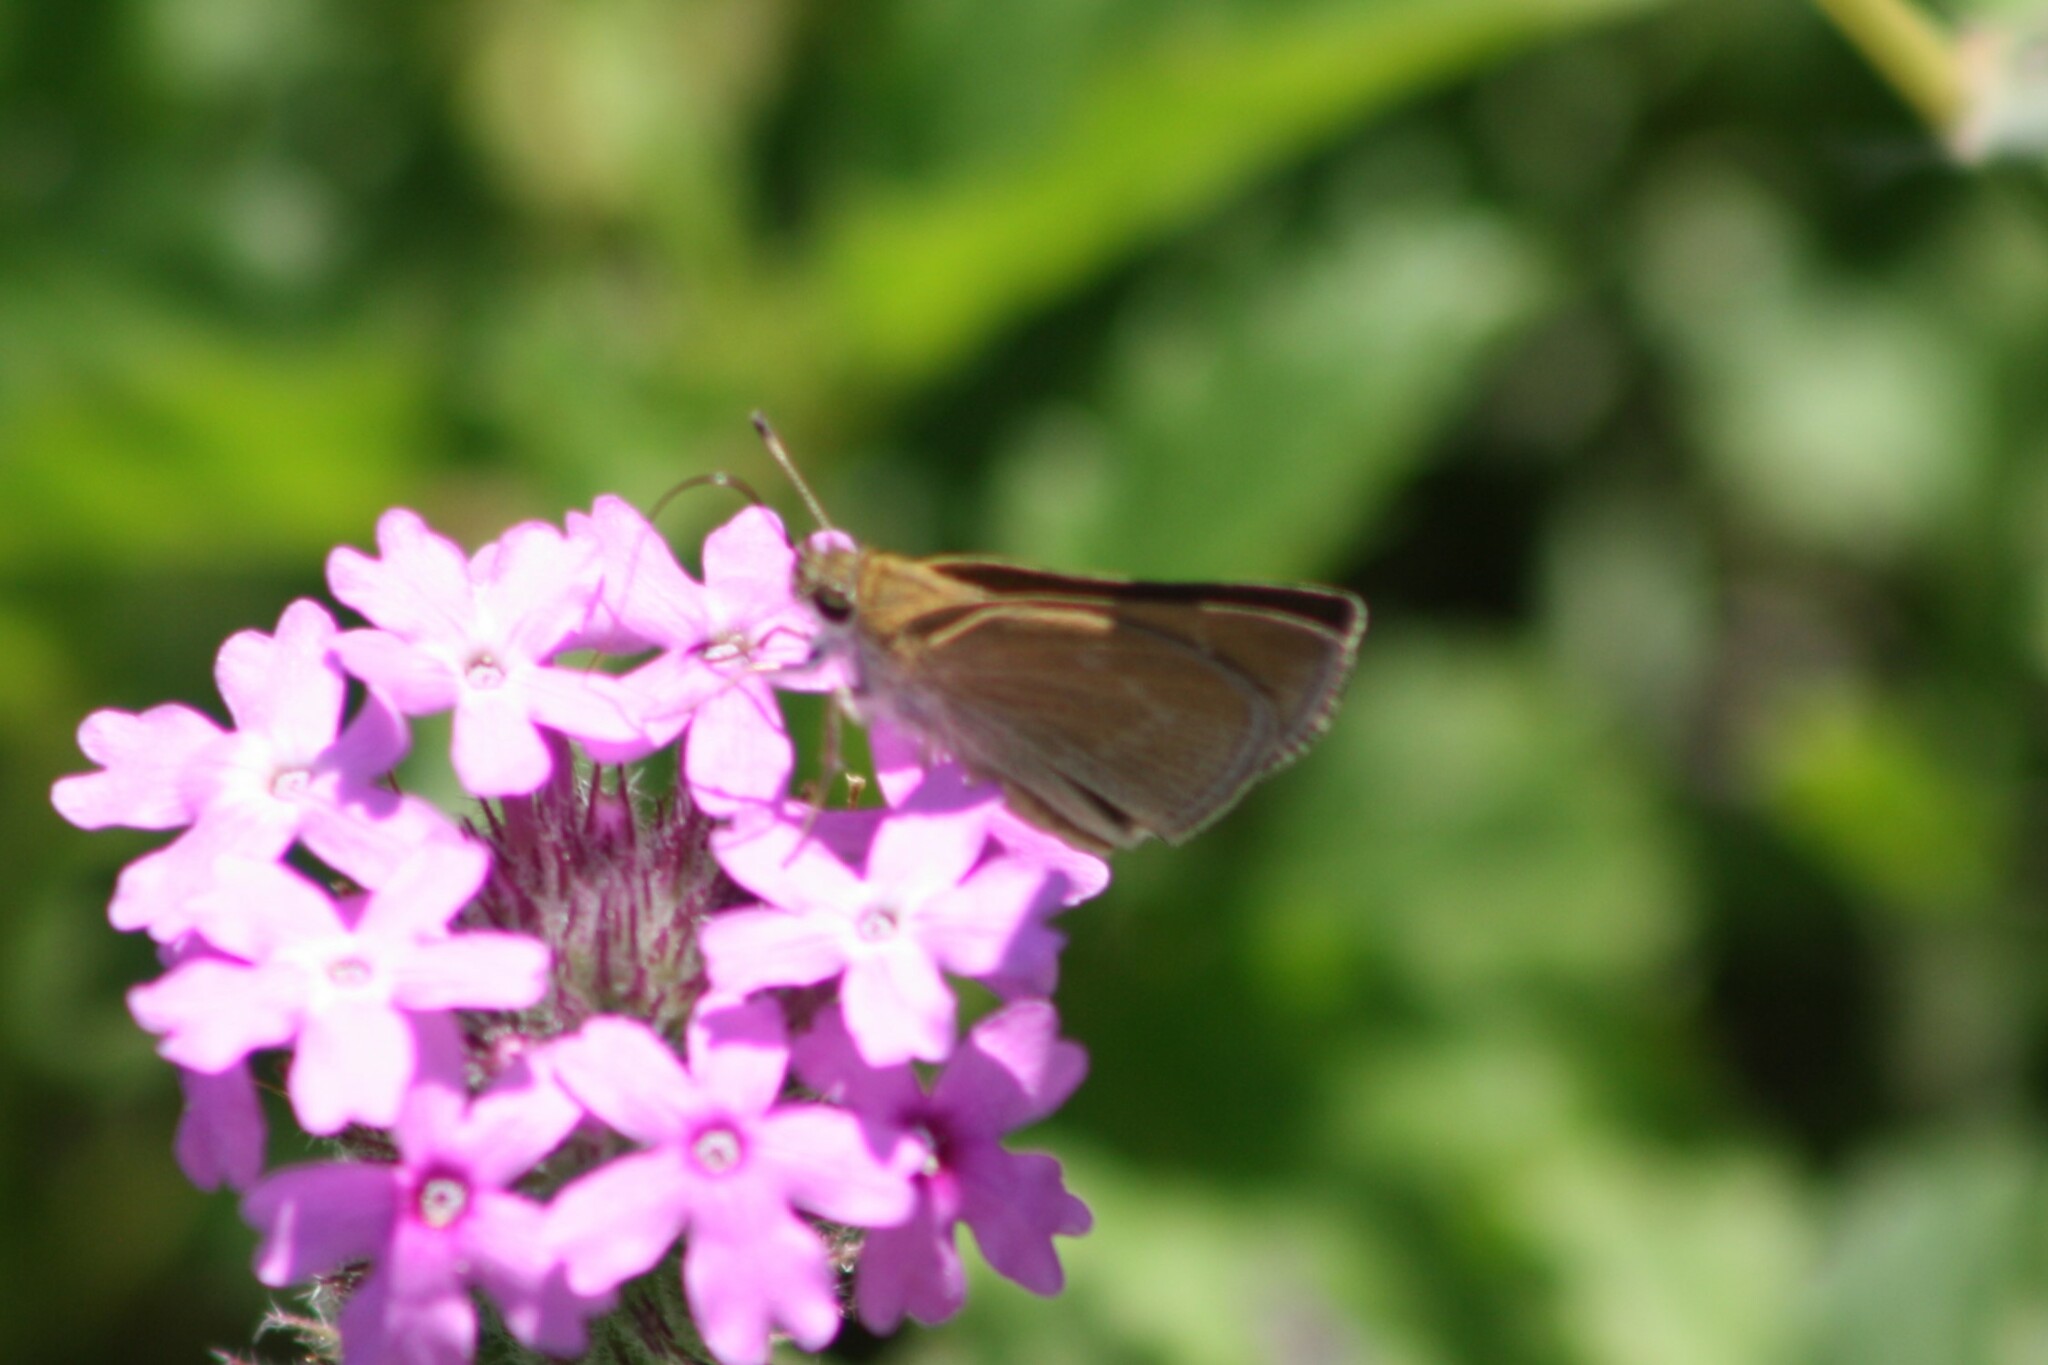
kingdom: Animalia
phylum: Arthropoda
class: Insecta
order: Lepidoptera
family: Hesperiidae
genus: Nastra
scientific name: Nastra julia
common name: Julia's skipper
